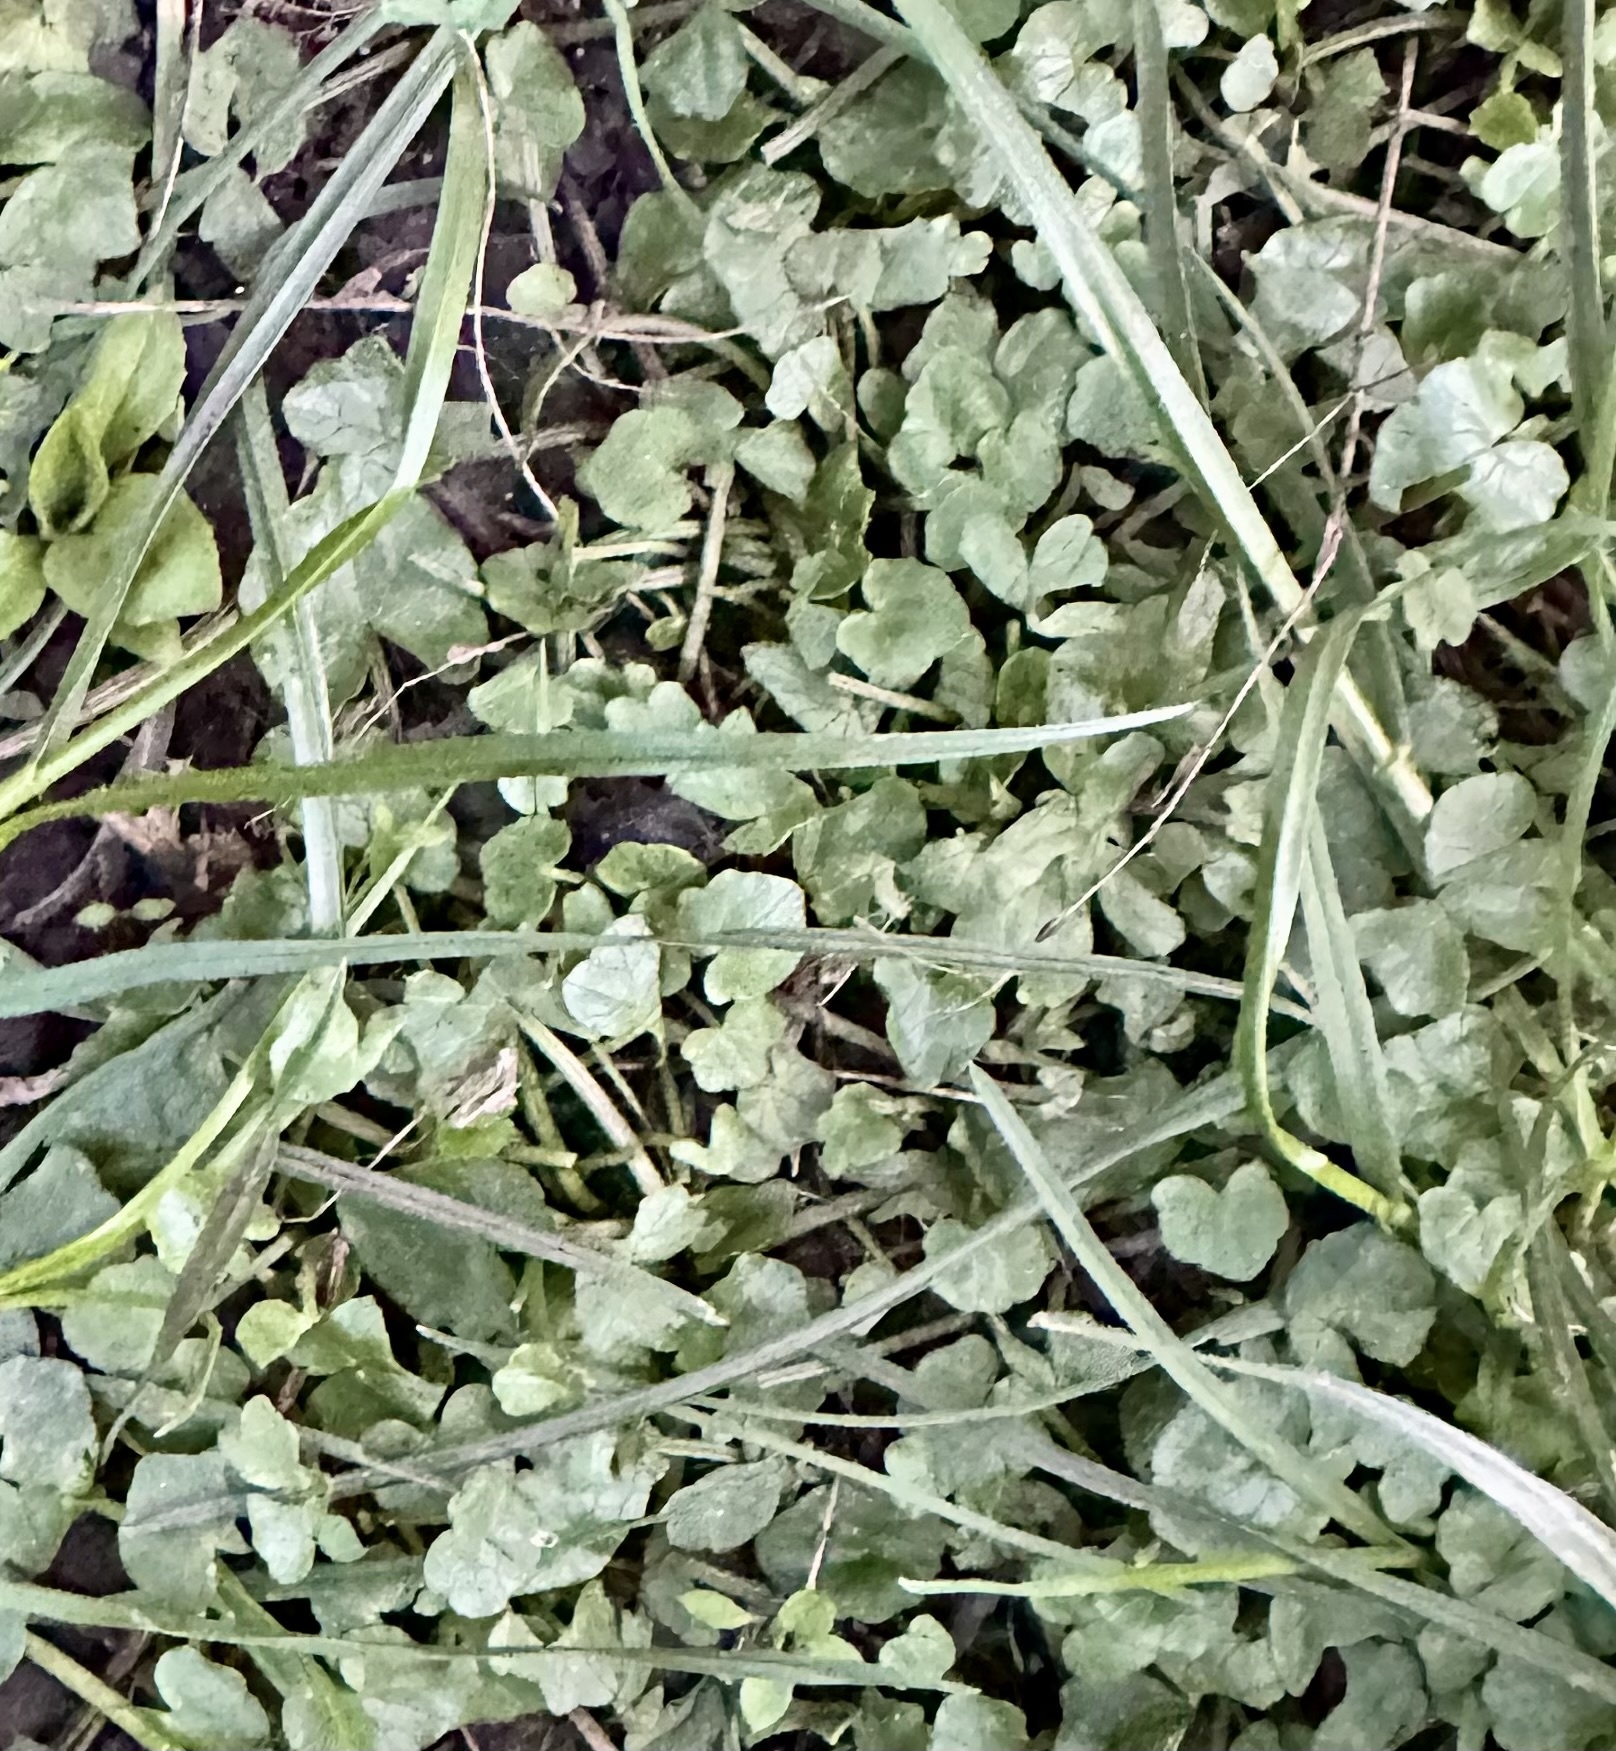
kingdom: Plantae
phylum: Tracheophyta
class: Magnoliopsida
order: Ranunculales
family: Ranunculaceae
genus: Ficaria
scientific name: Ficaria verna
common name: Lesser celandine
